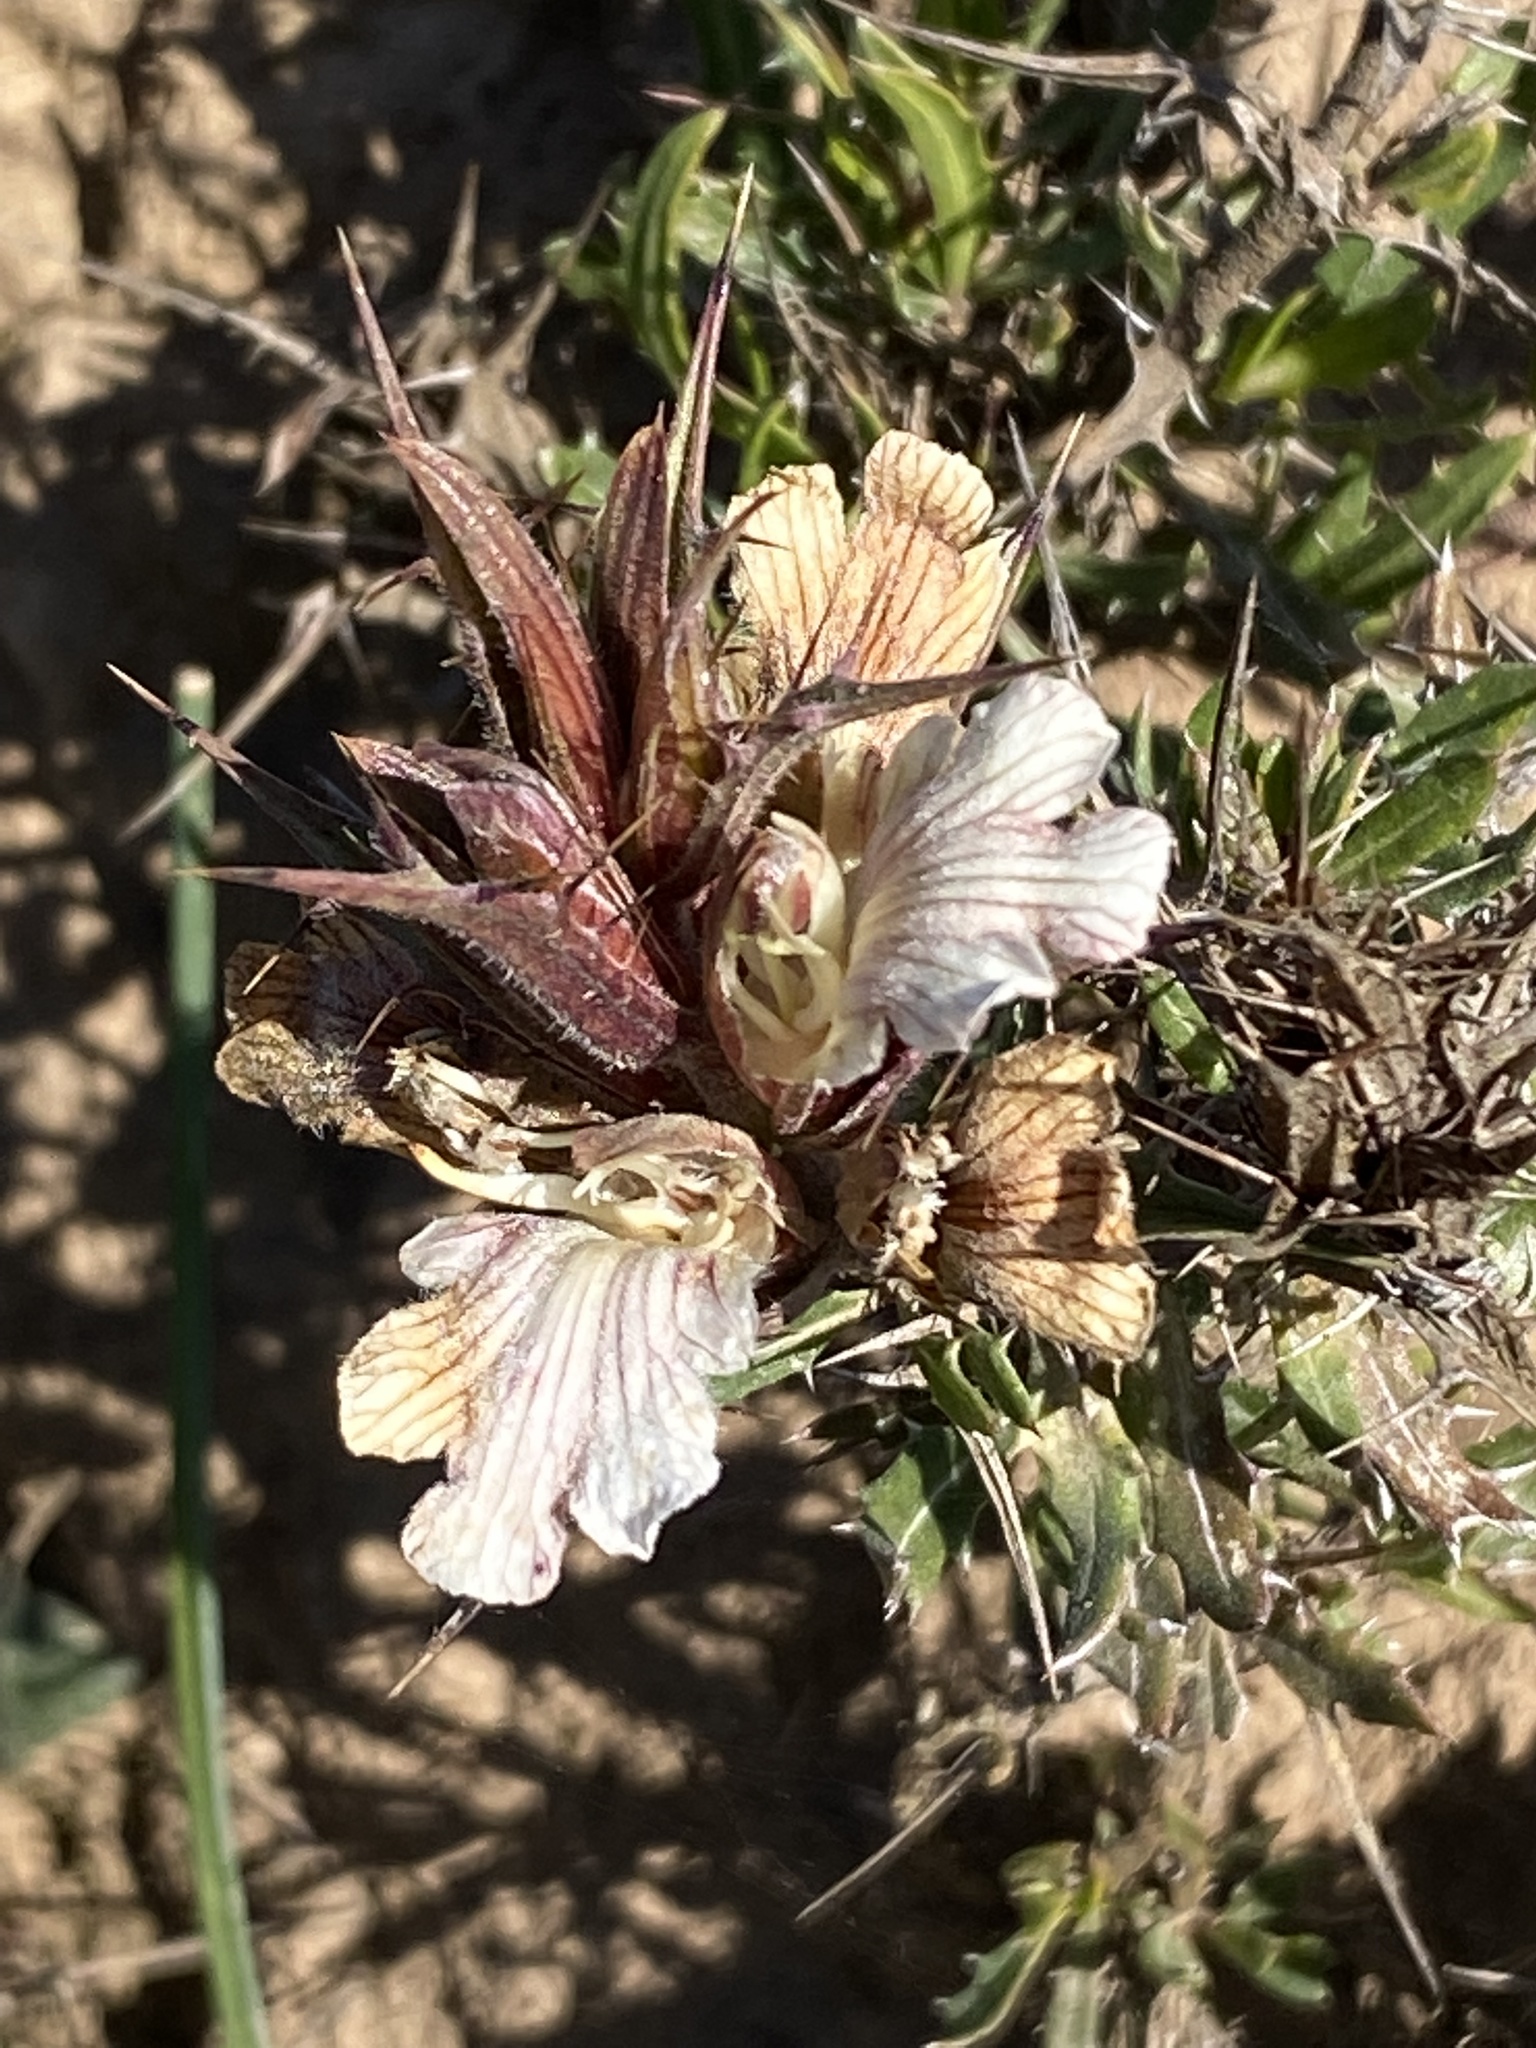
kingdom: Plantae
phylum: Tracheophyta
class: Magnoliopsida
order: Lamiales
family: Acanthaceae
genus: Blepharis
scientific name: Blepharis capensis
